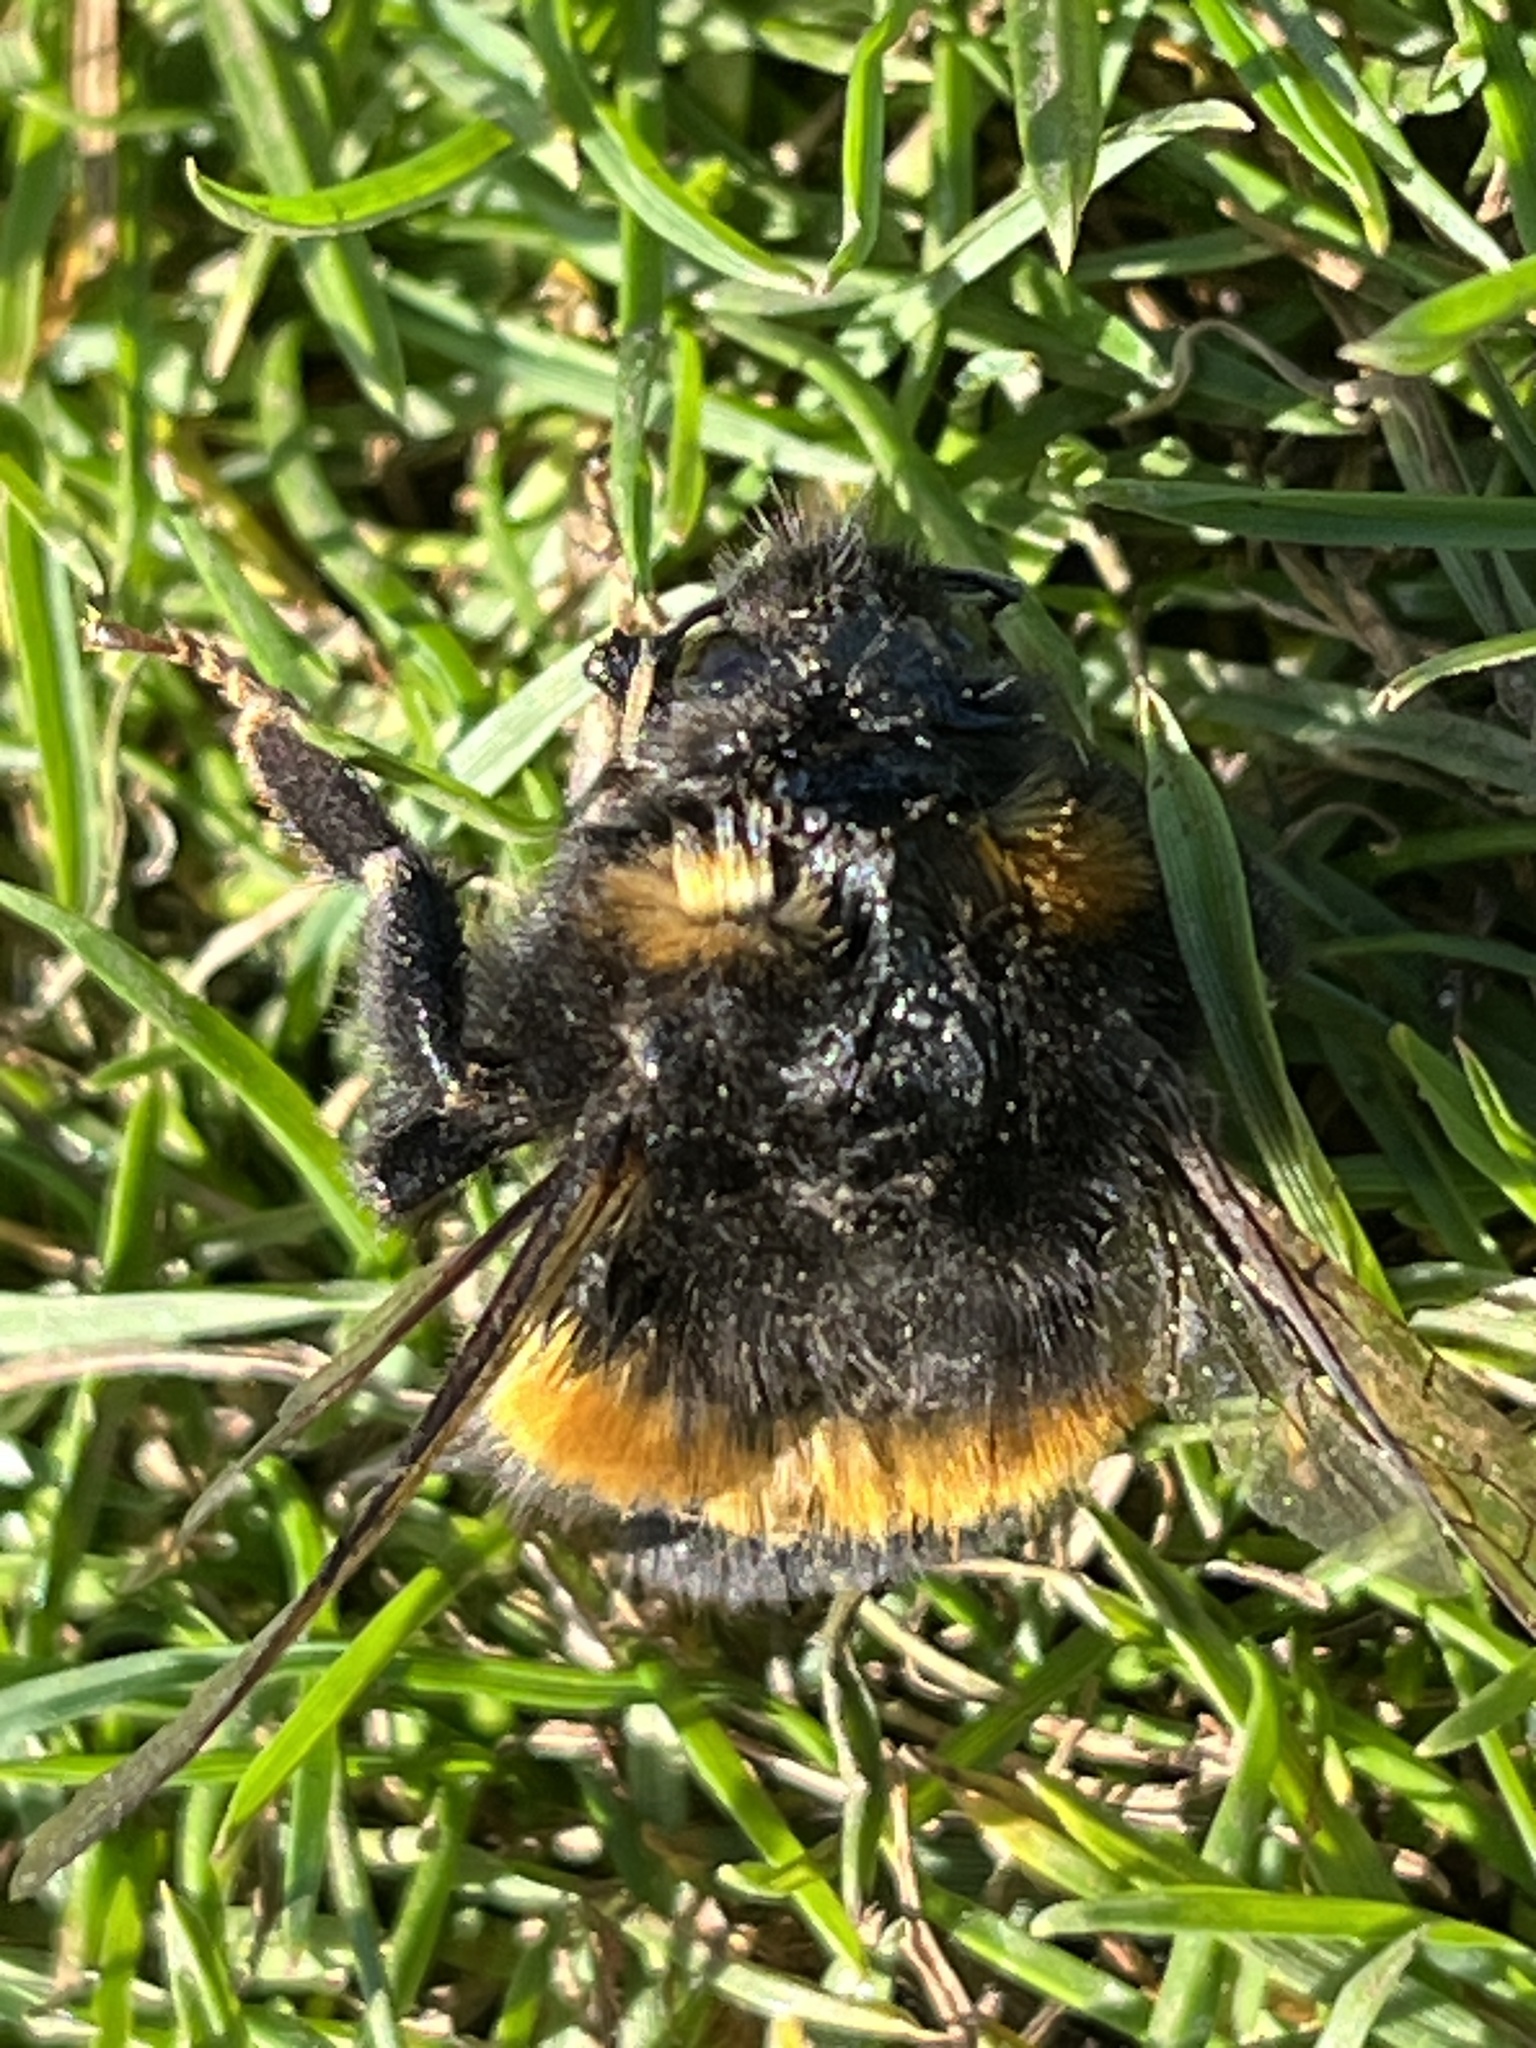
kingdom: Animalia
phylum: Arthropoda
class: Insecta
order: Hymenoptera
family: Apidae
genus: Bombus
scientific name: Bombus terrestris
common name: Buff-tailed bumblebee
